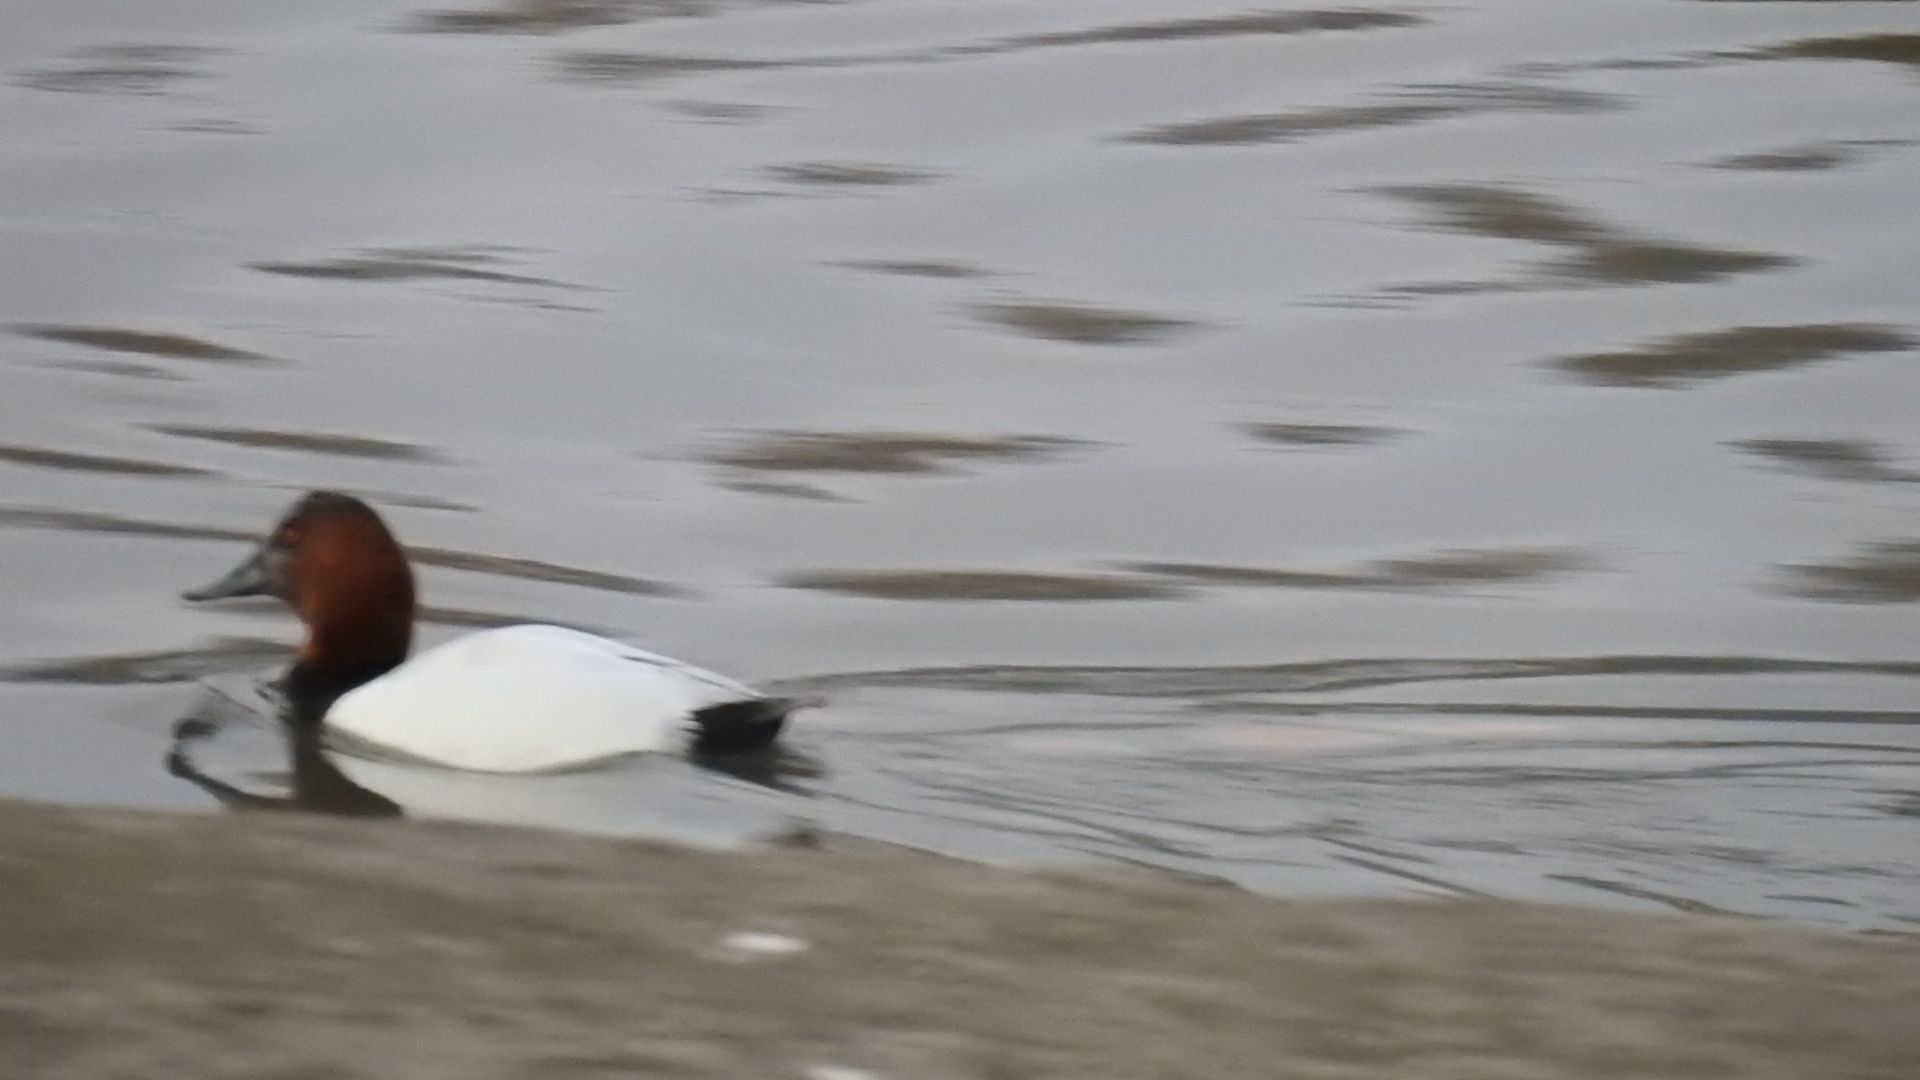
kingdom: Animalia
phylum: Chordata
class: Aves
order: Anseriformes
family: Anatidae
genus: Aythya
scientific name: Aythya valisineria
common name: Canvasback
